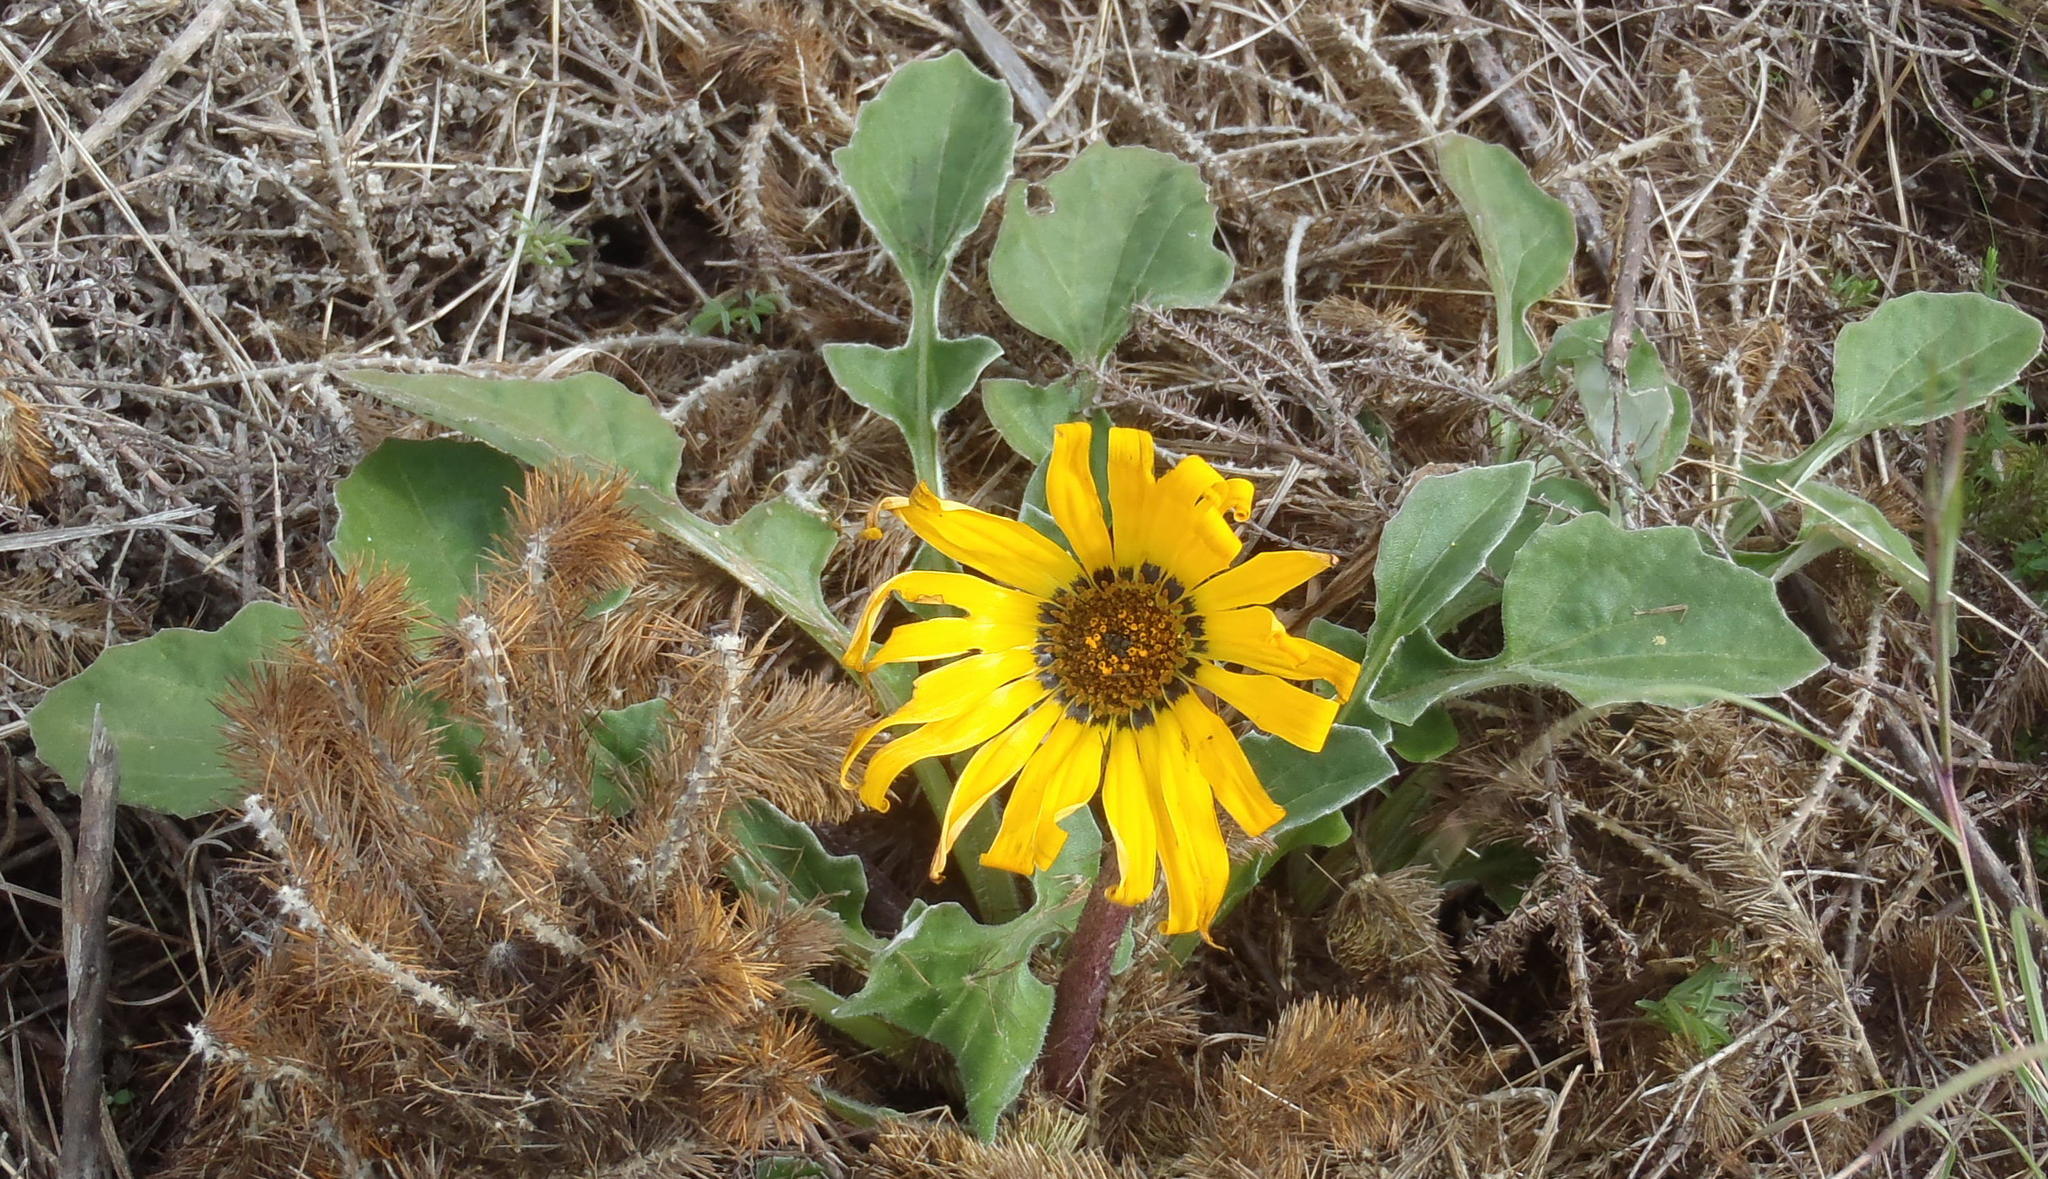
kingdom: Plantae
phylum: Tracheophyta
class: Magnoliopsida
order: Asterales
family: Asteraceae
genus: Arctotis
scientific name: Arctotis acaulis
